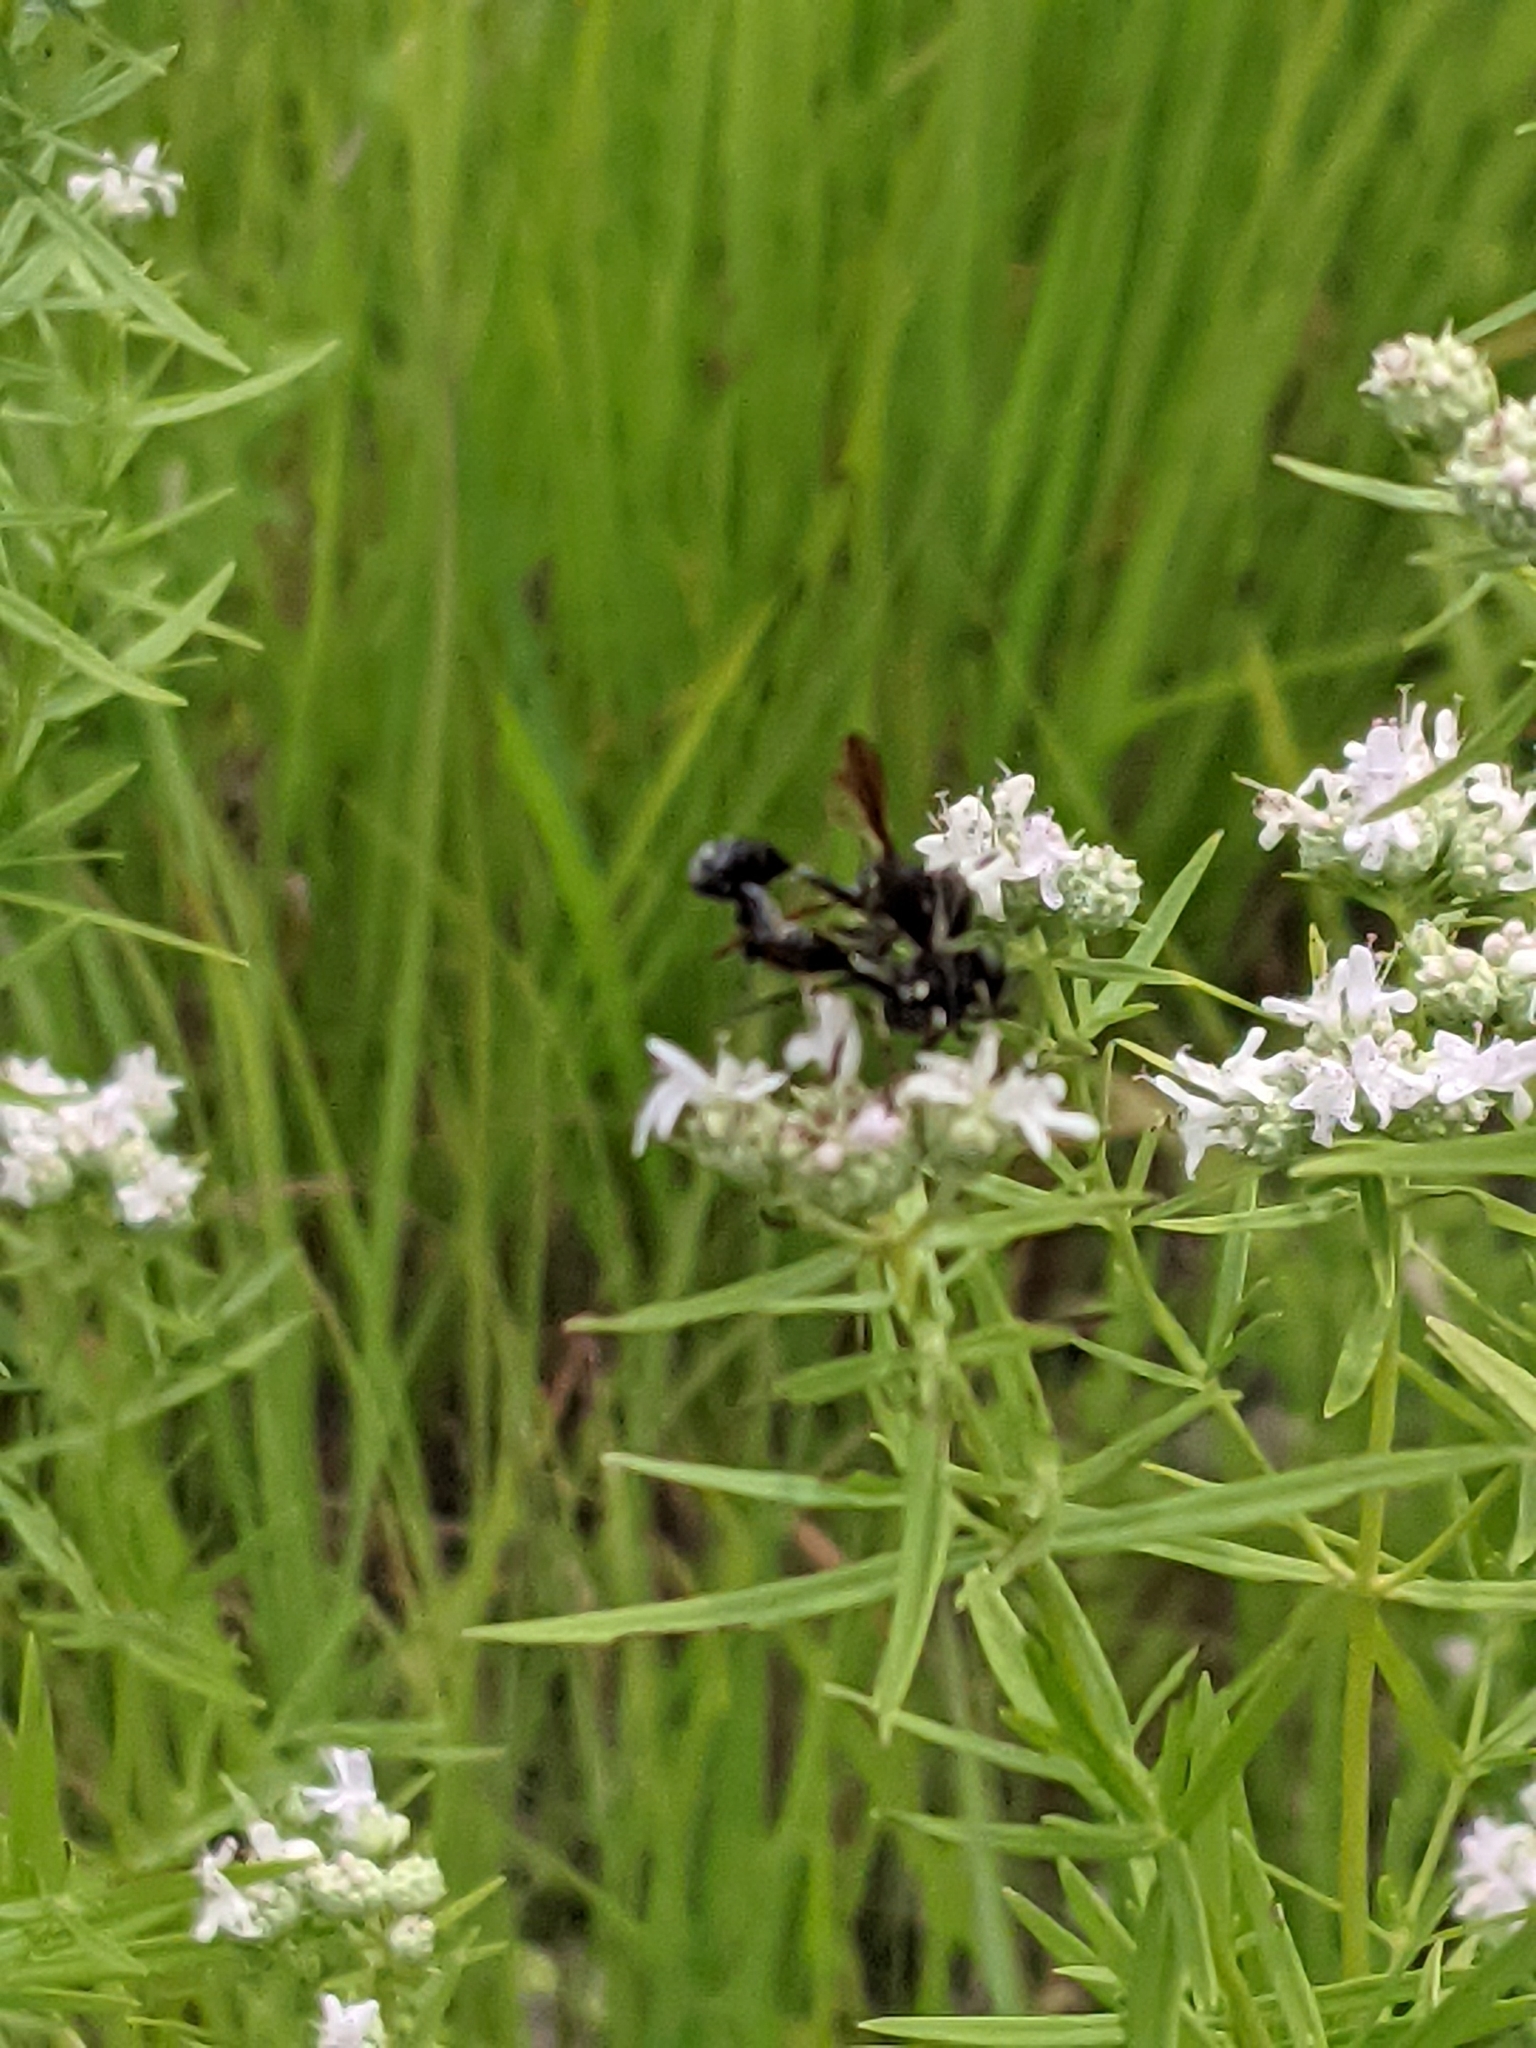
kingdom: Animalia
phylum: Arthropoda
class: Insecta
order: Diptera
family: Conopidae
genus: Physocephala
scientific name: Physocephala tibialis
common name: Common eastern physocephala
